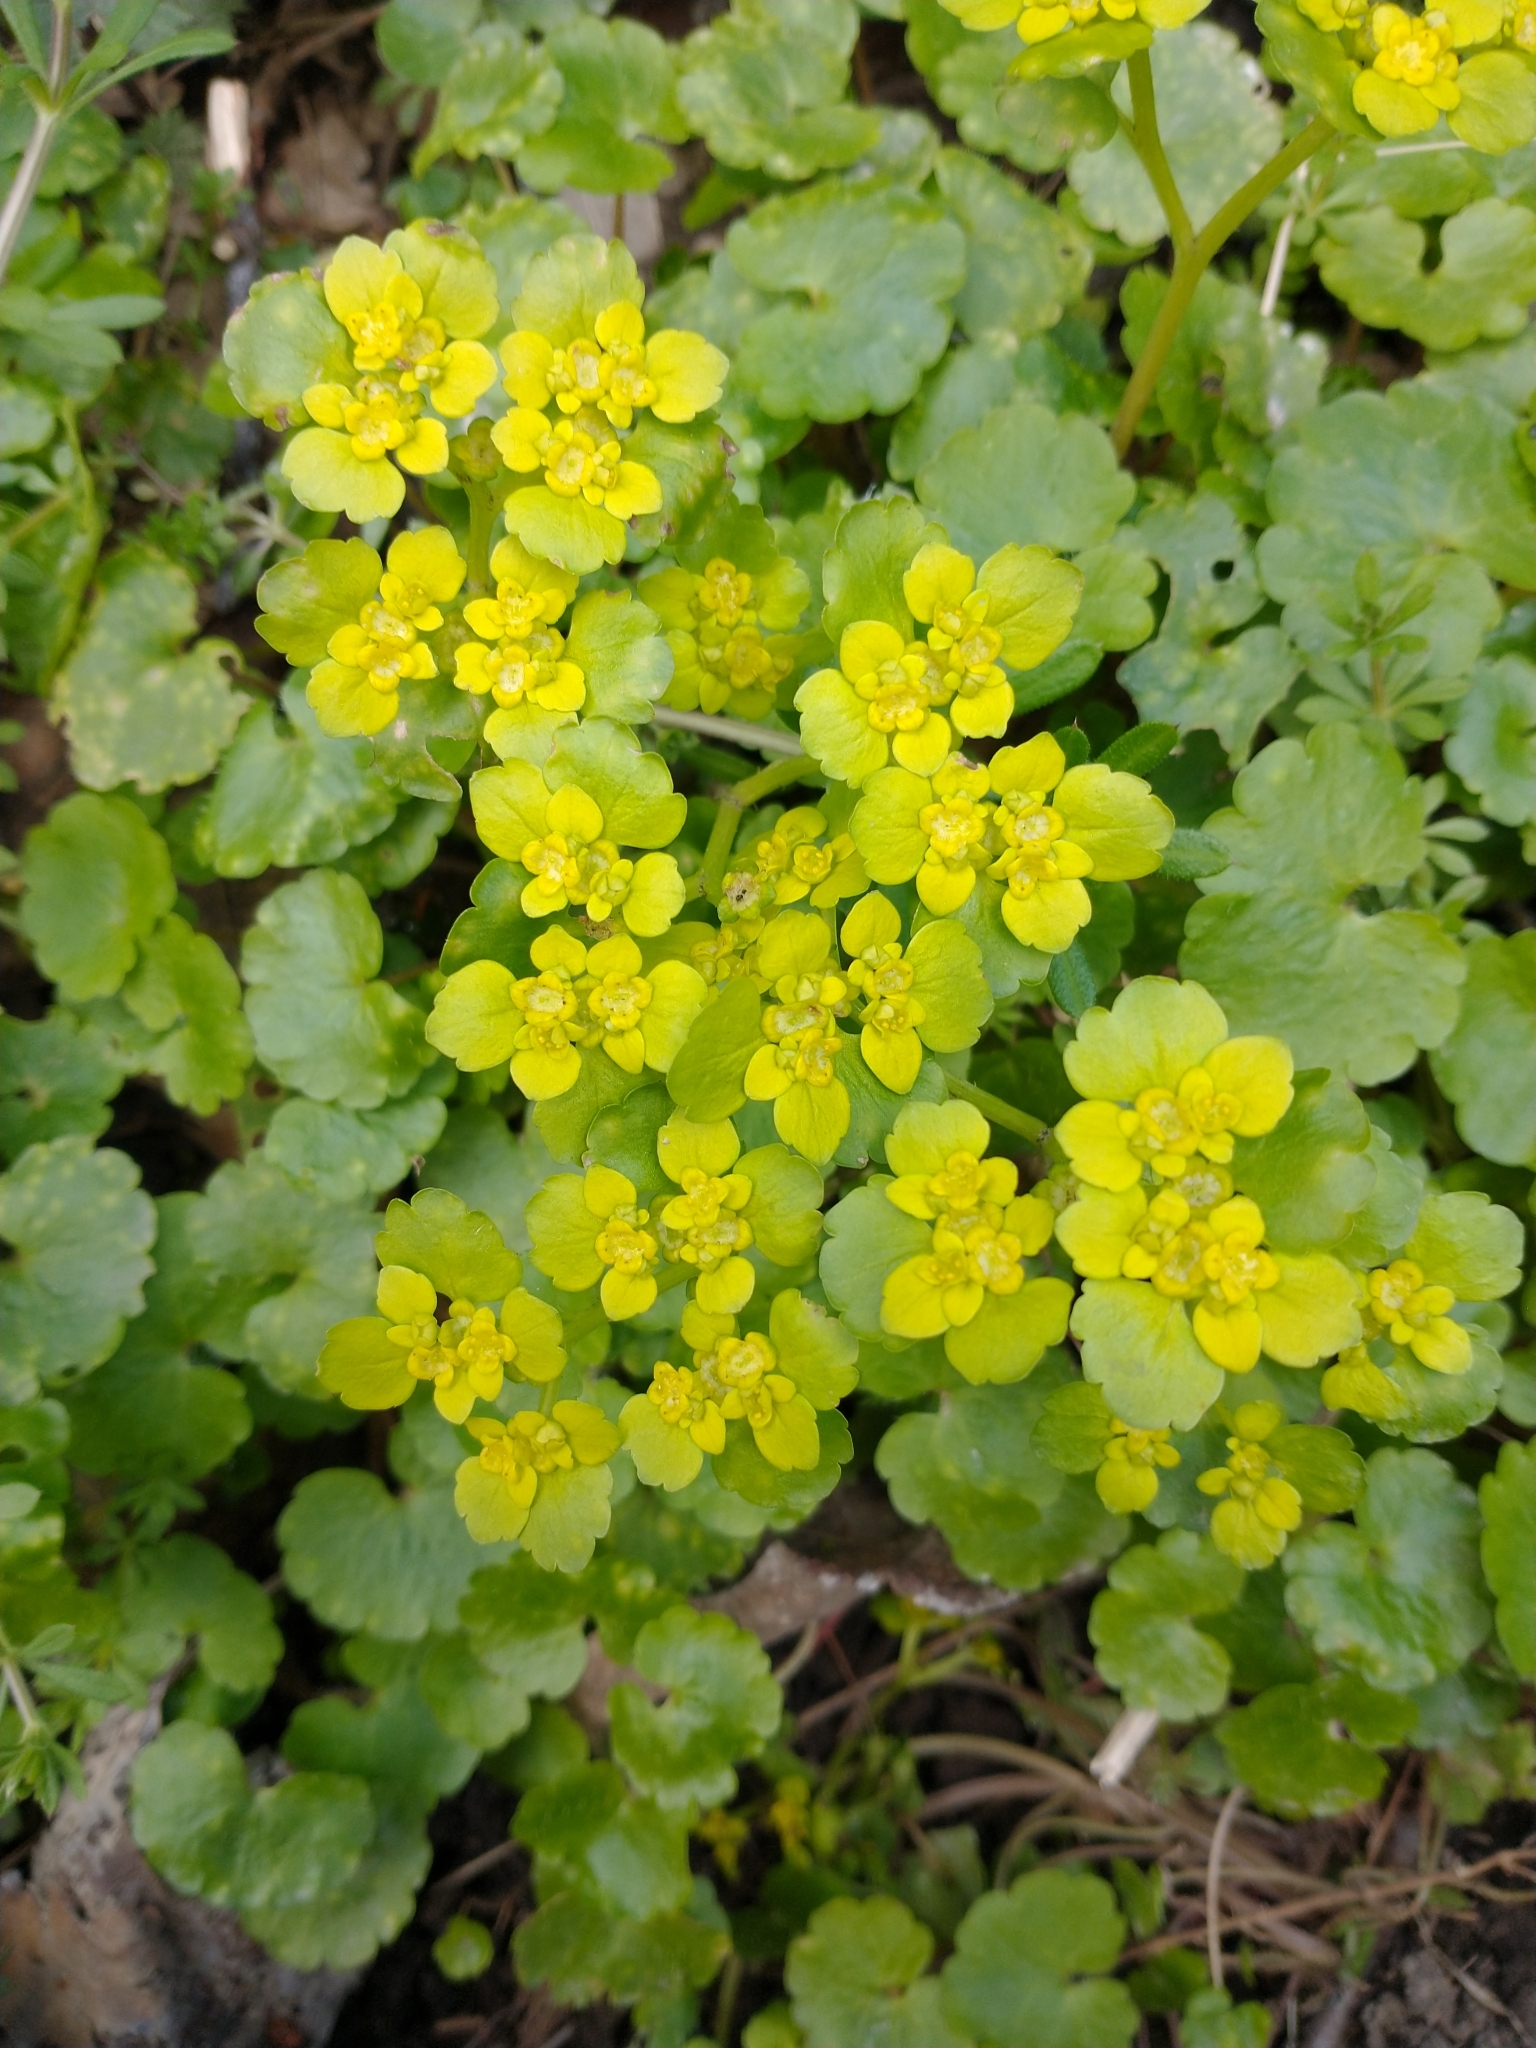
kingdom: Plantae
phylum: Tracheophyta
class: Magnoliopsida
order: Saxifragales
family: Saxifragaceae
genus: Chrysosplenium
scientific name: Chrysosplenium alternifolium
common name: Alternate-leaved golden-saxifrage
